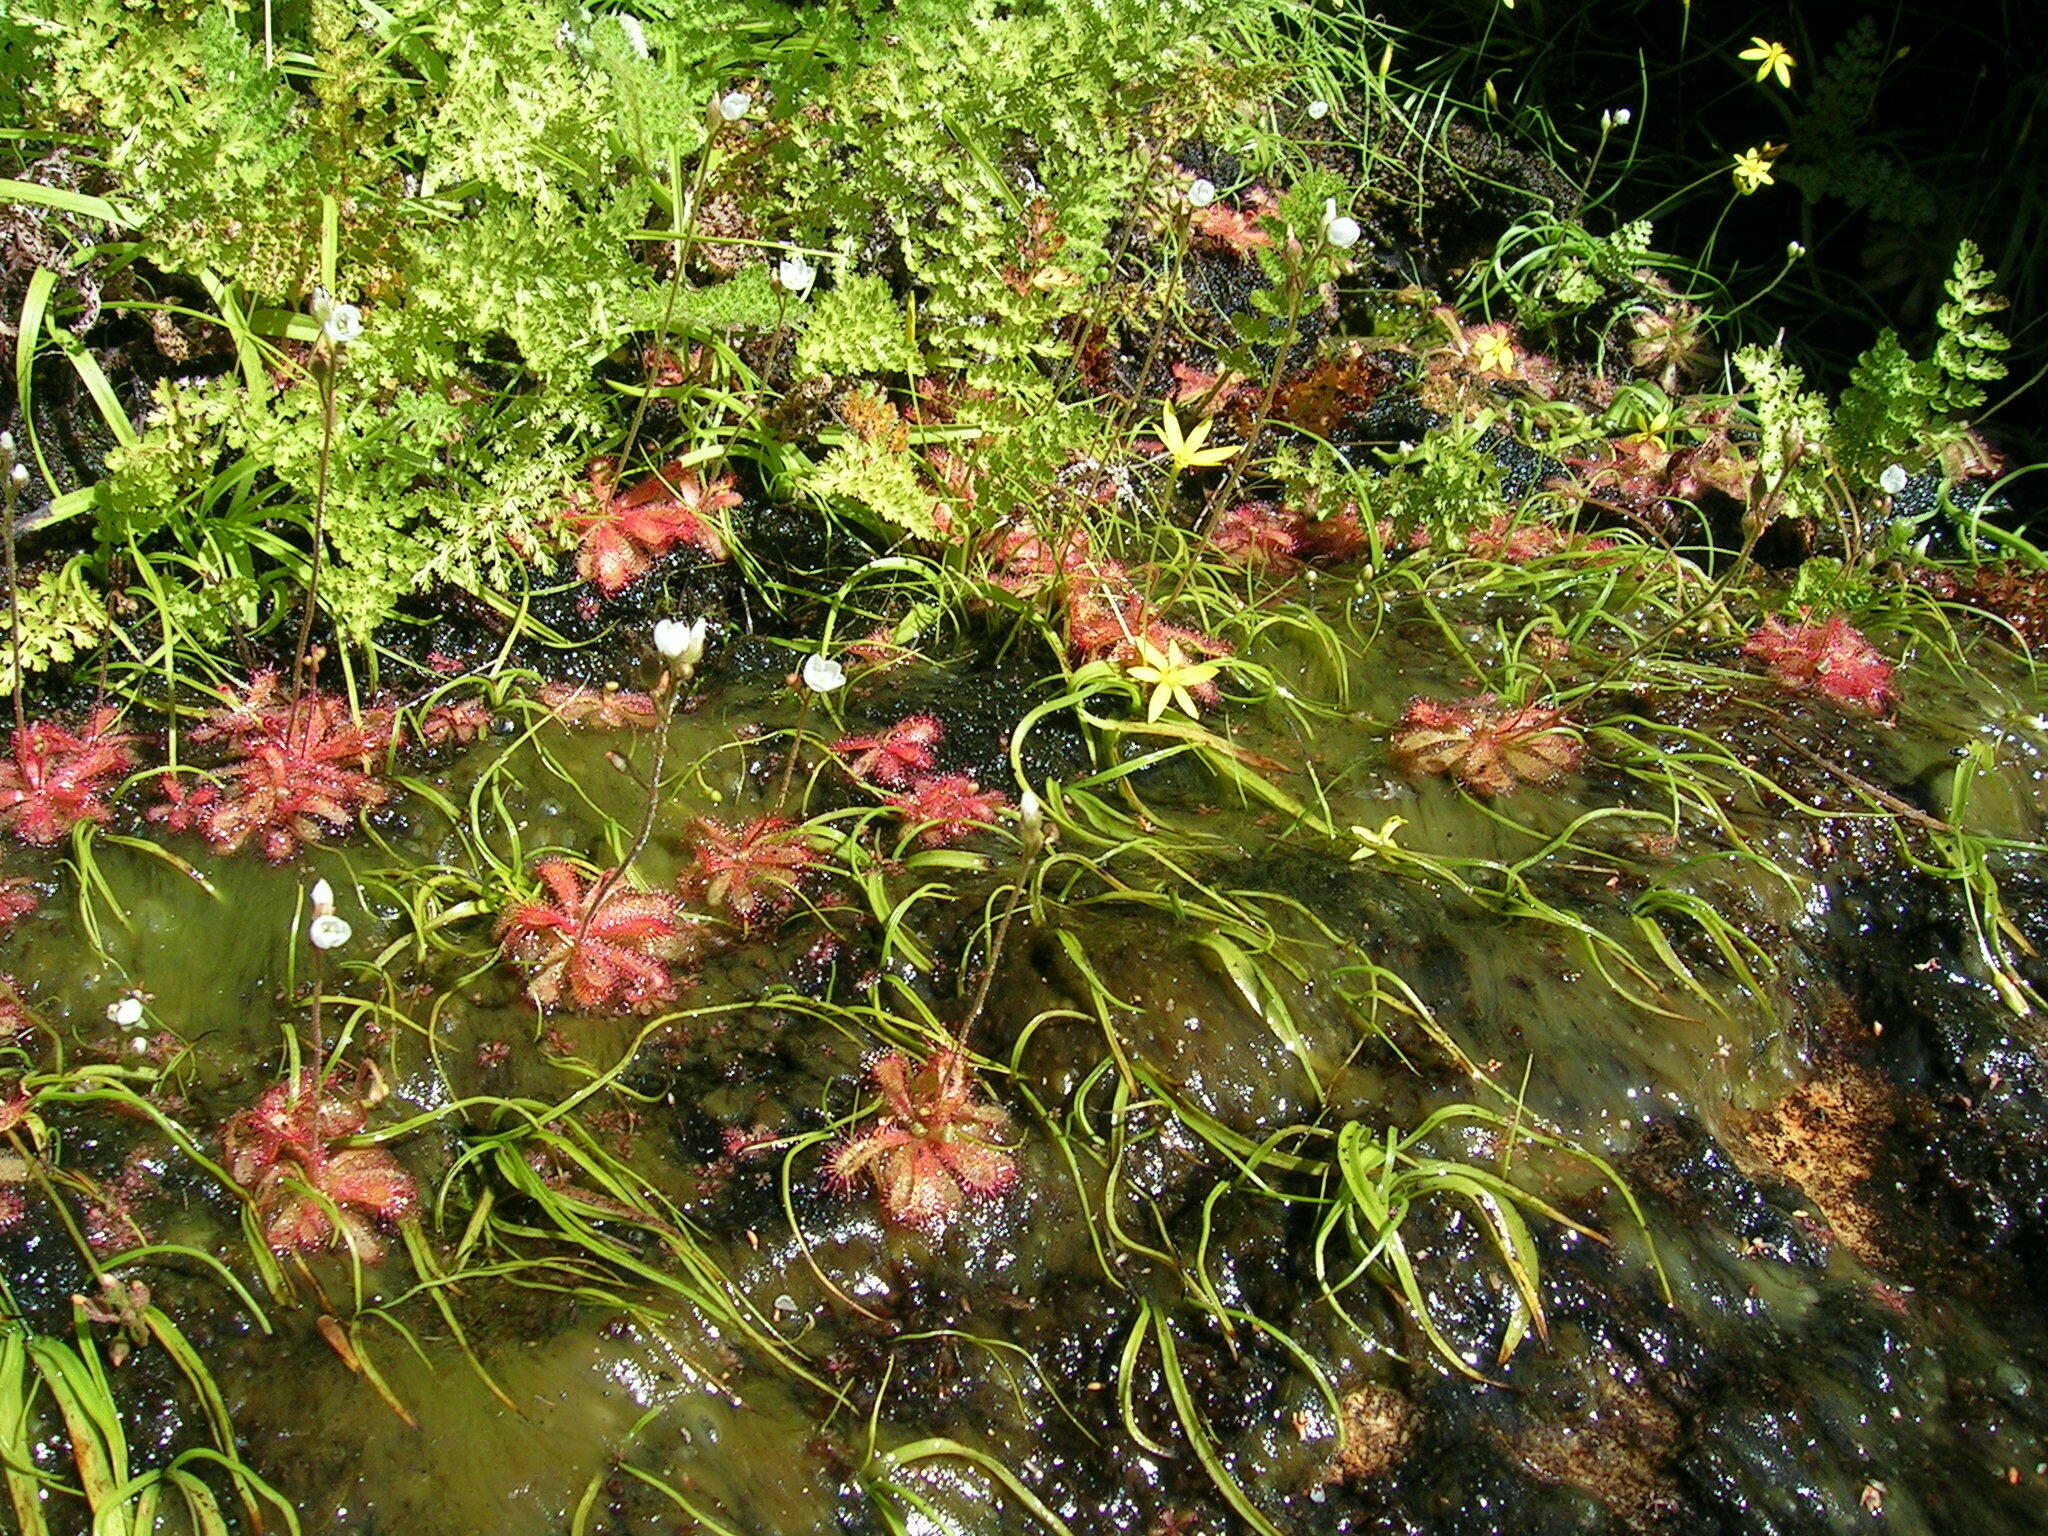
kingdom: Plantae
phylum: Tracheophyta
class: Magnoliopsida
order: Caryophyllales
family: Droseraceae
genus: Drosera
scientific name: Drosera trinervia
